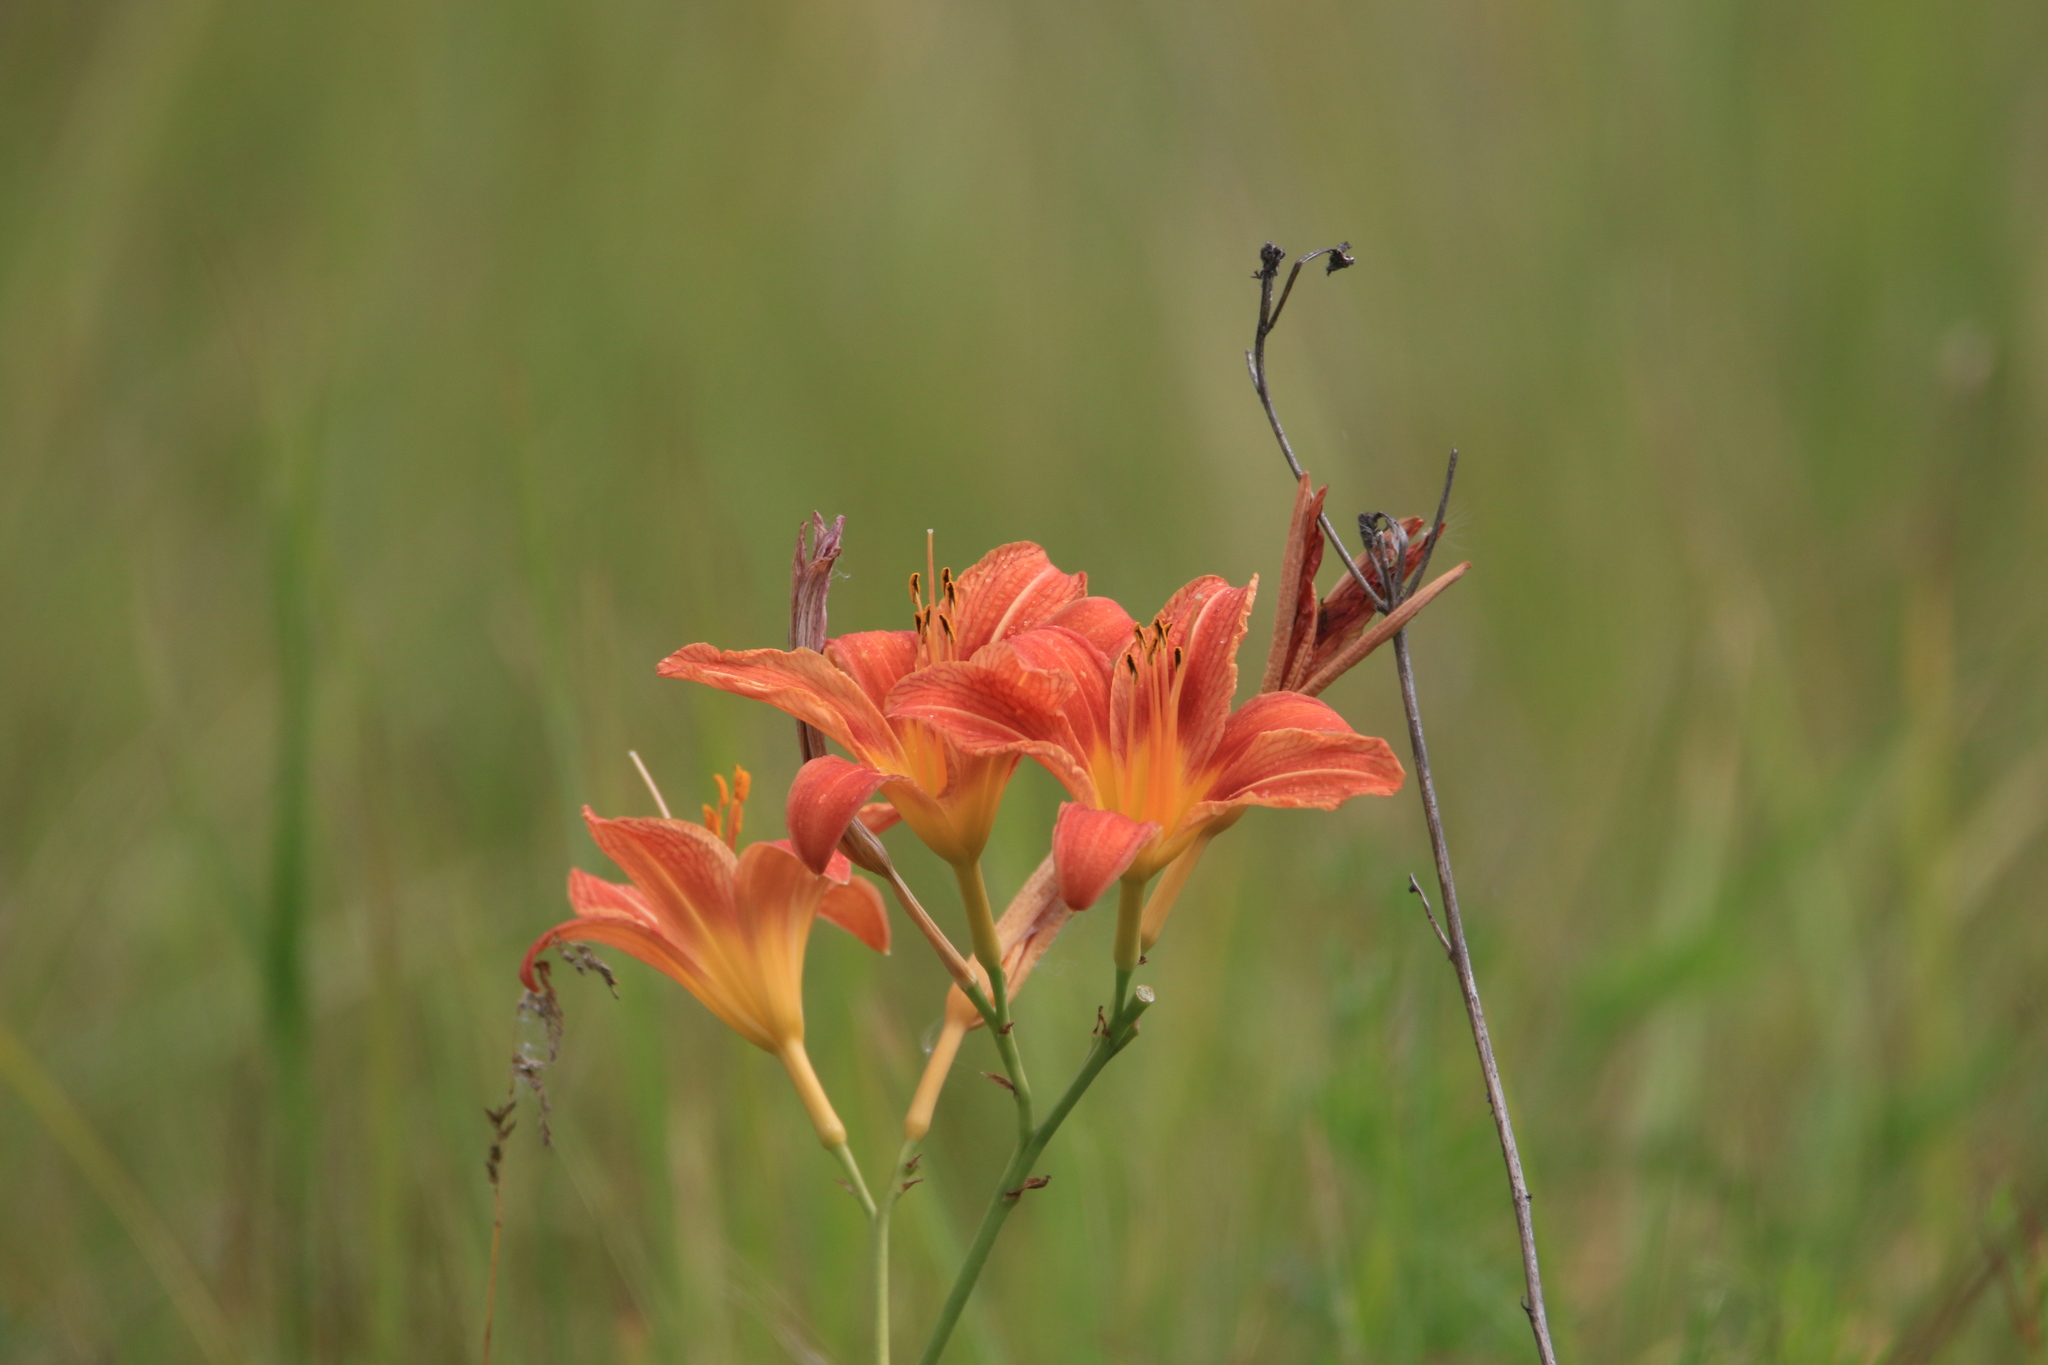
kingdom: Plantae
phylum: Tracheophyta
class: Liliopsida
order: Asparagales
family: Asphodelaceae
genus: Hemerocallis
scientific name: Hemerocallis fulva
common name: Orange day-lily
